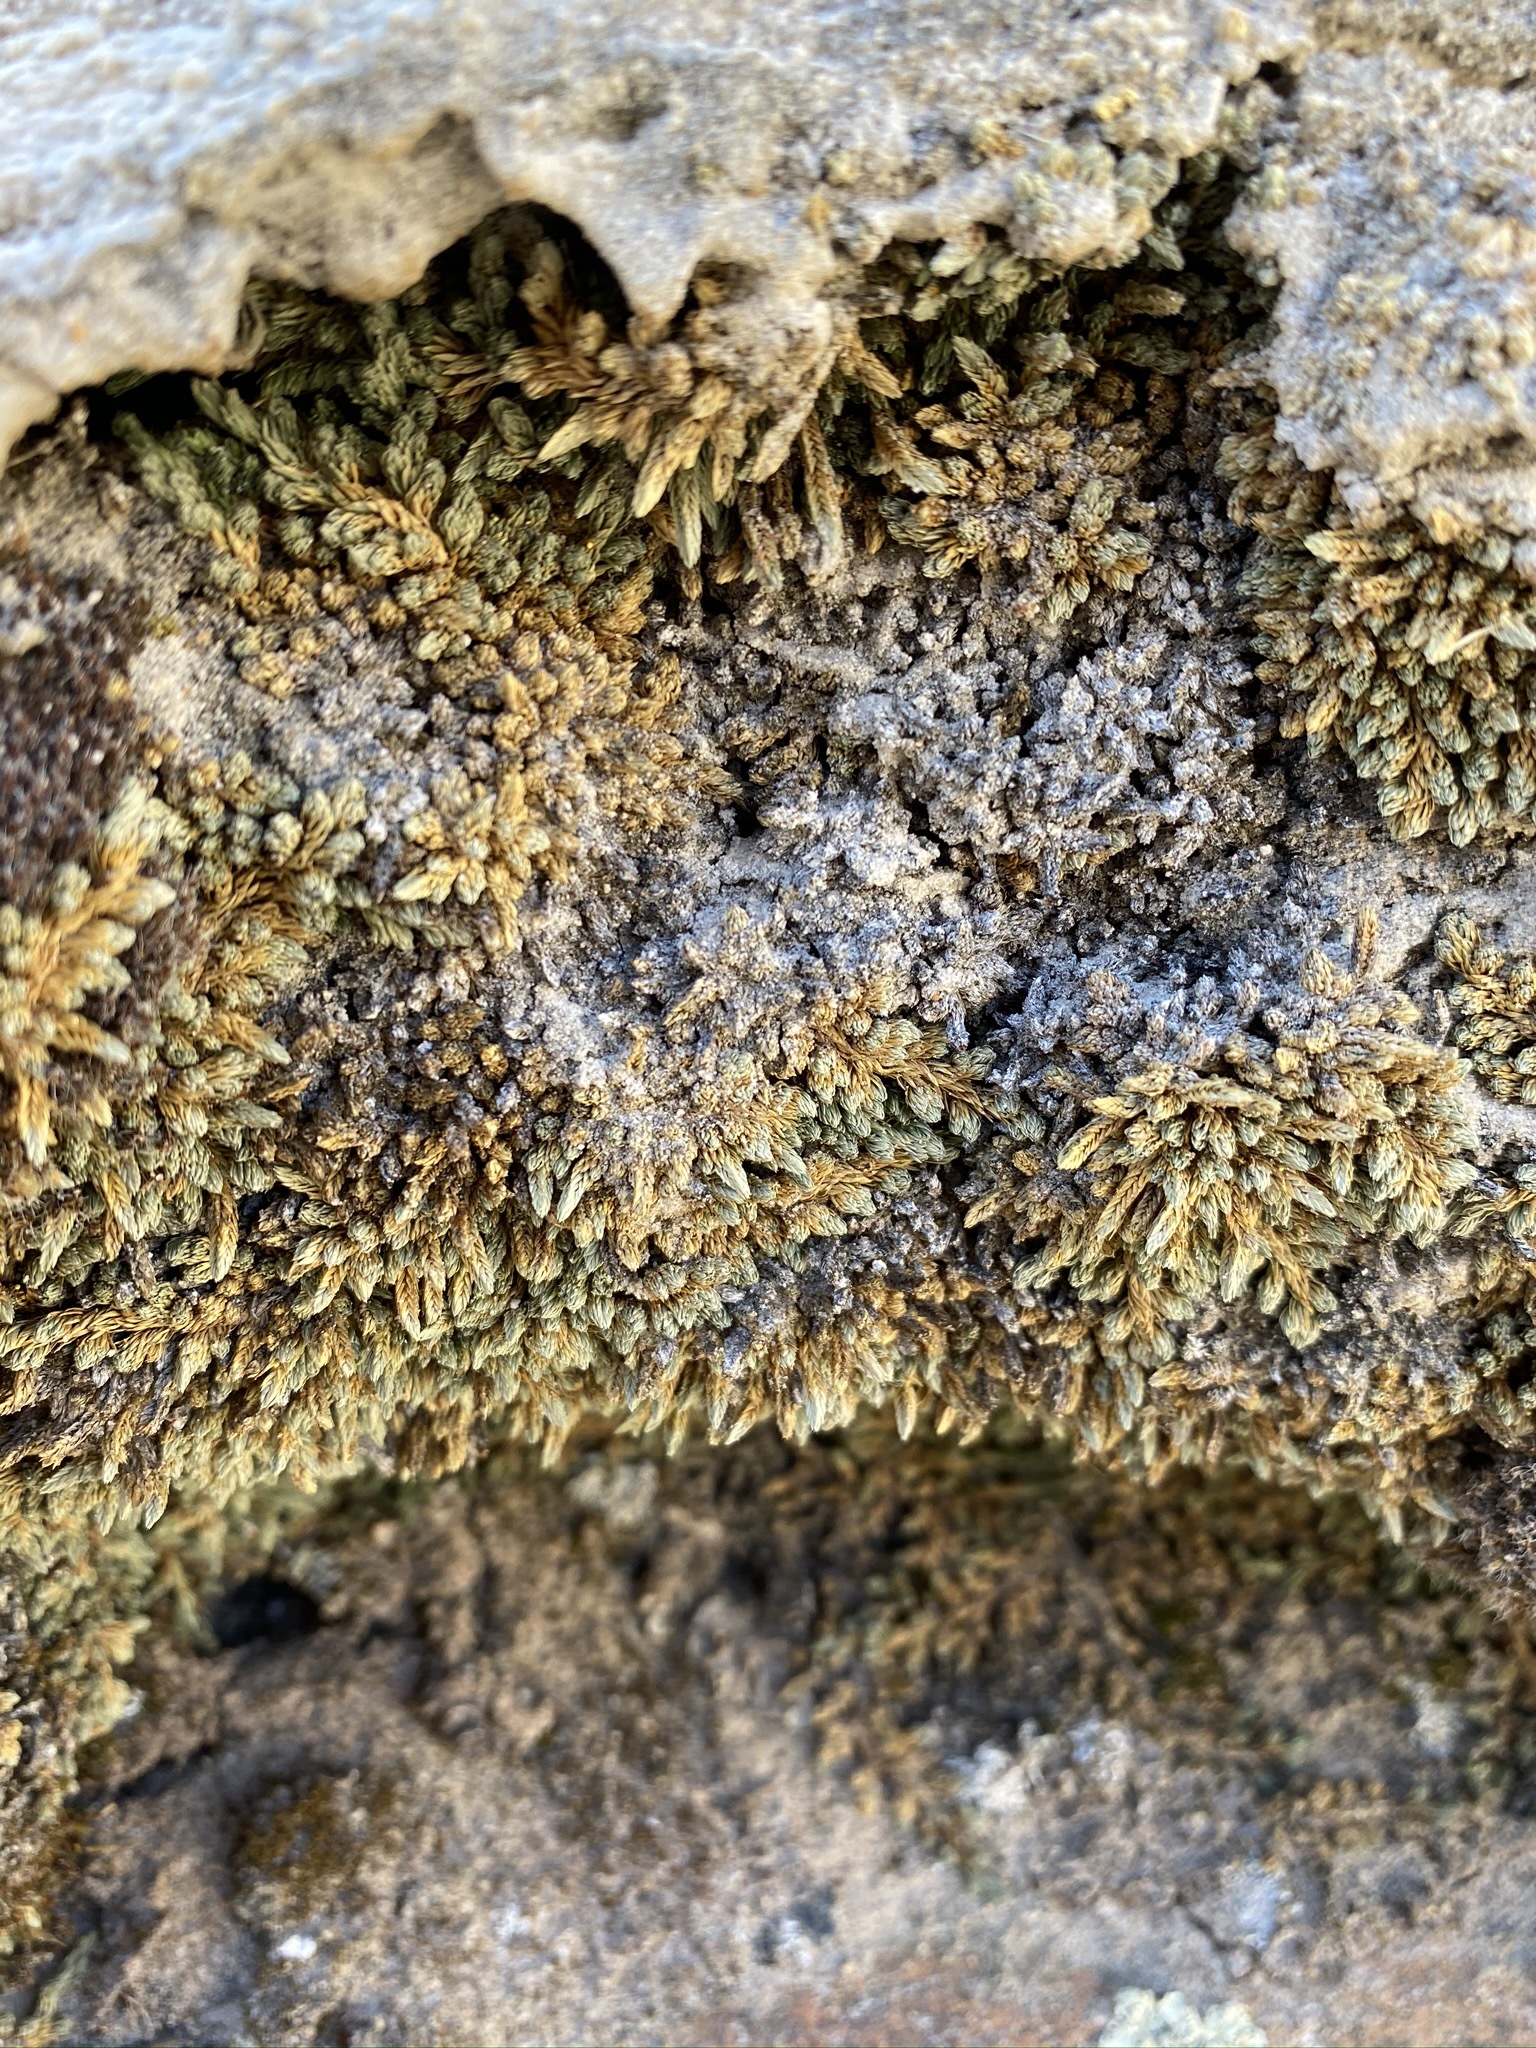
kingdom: Plantae
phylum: Tracheophyta
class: Lycopodiopsida
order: Selaginellales
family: Selaginellaceae
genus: Selaginella
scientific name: Selaginella utahensis
